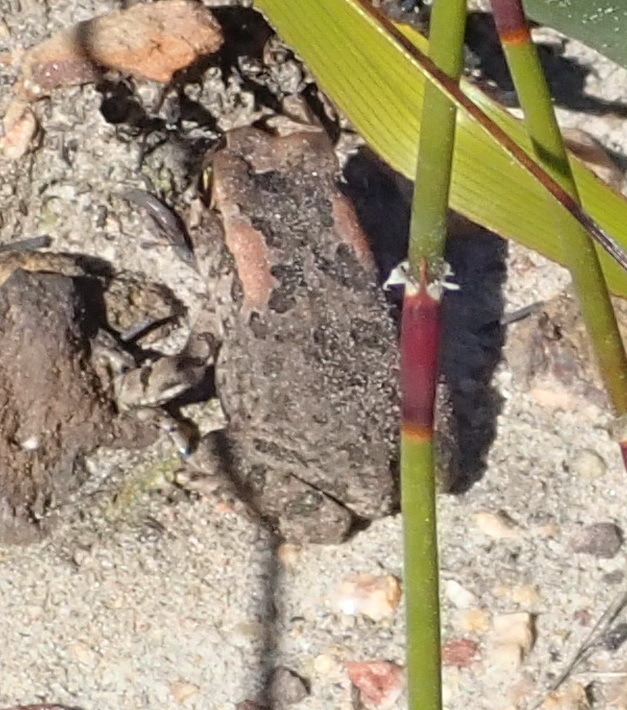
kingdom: Animalia
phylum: Chordata
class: Amphibia
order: Anura
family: Bufonidae
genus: Sclerophrys
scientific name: Sclerophrys capensis
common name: Ranger’s toad
